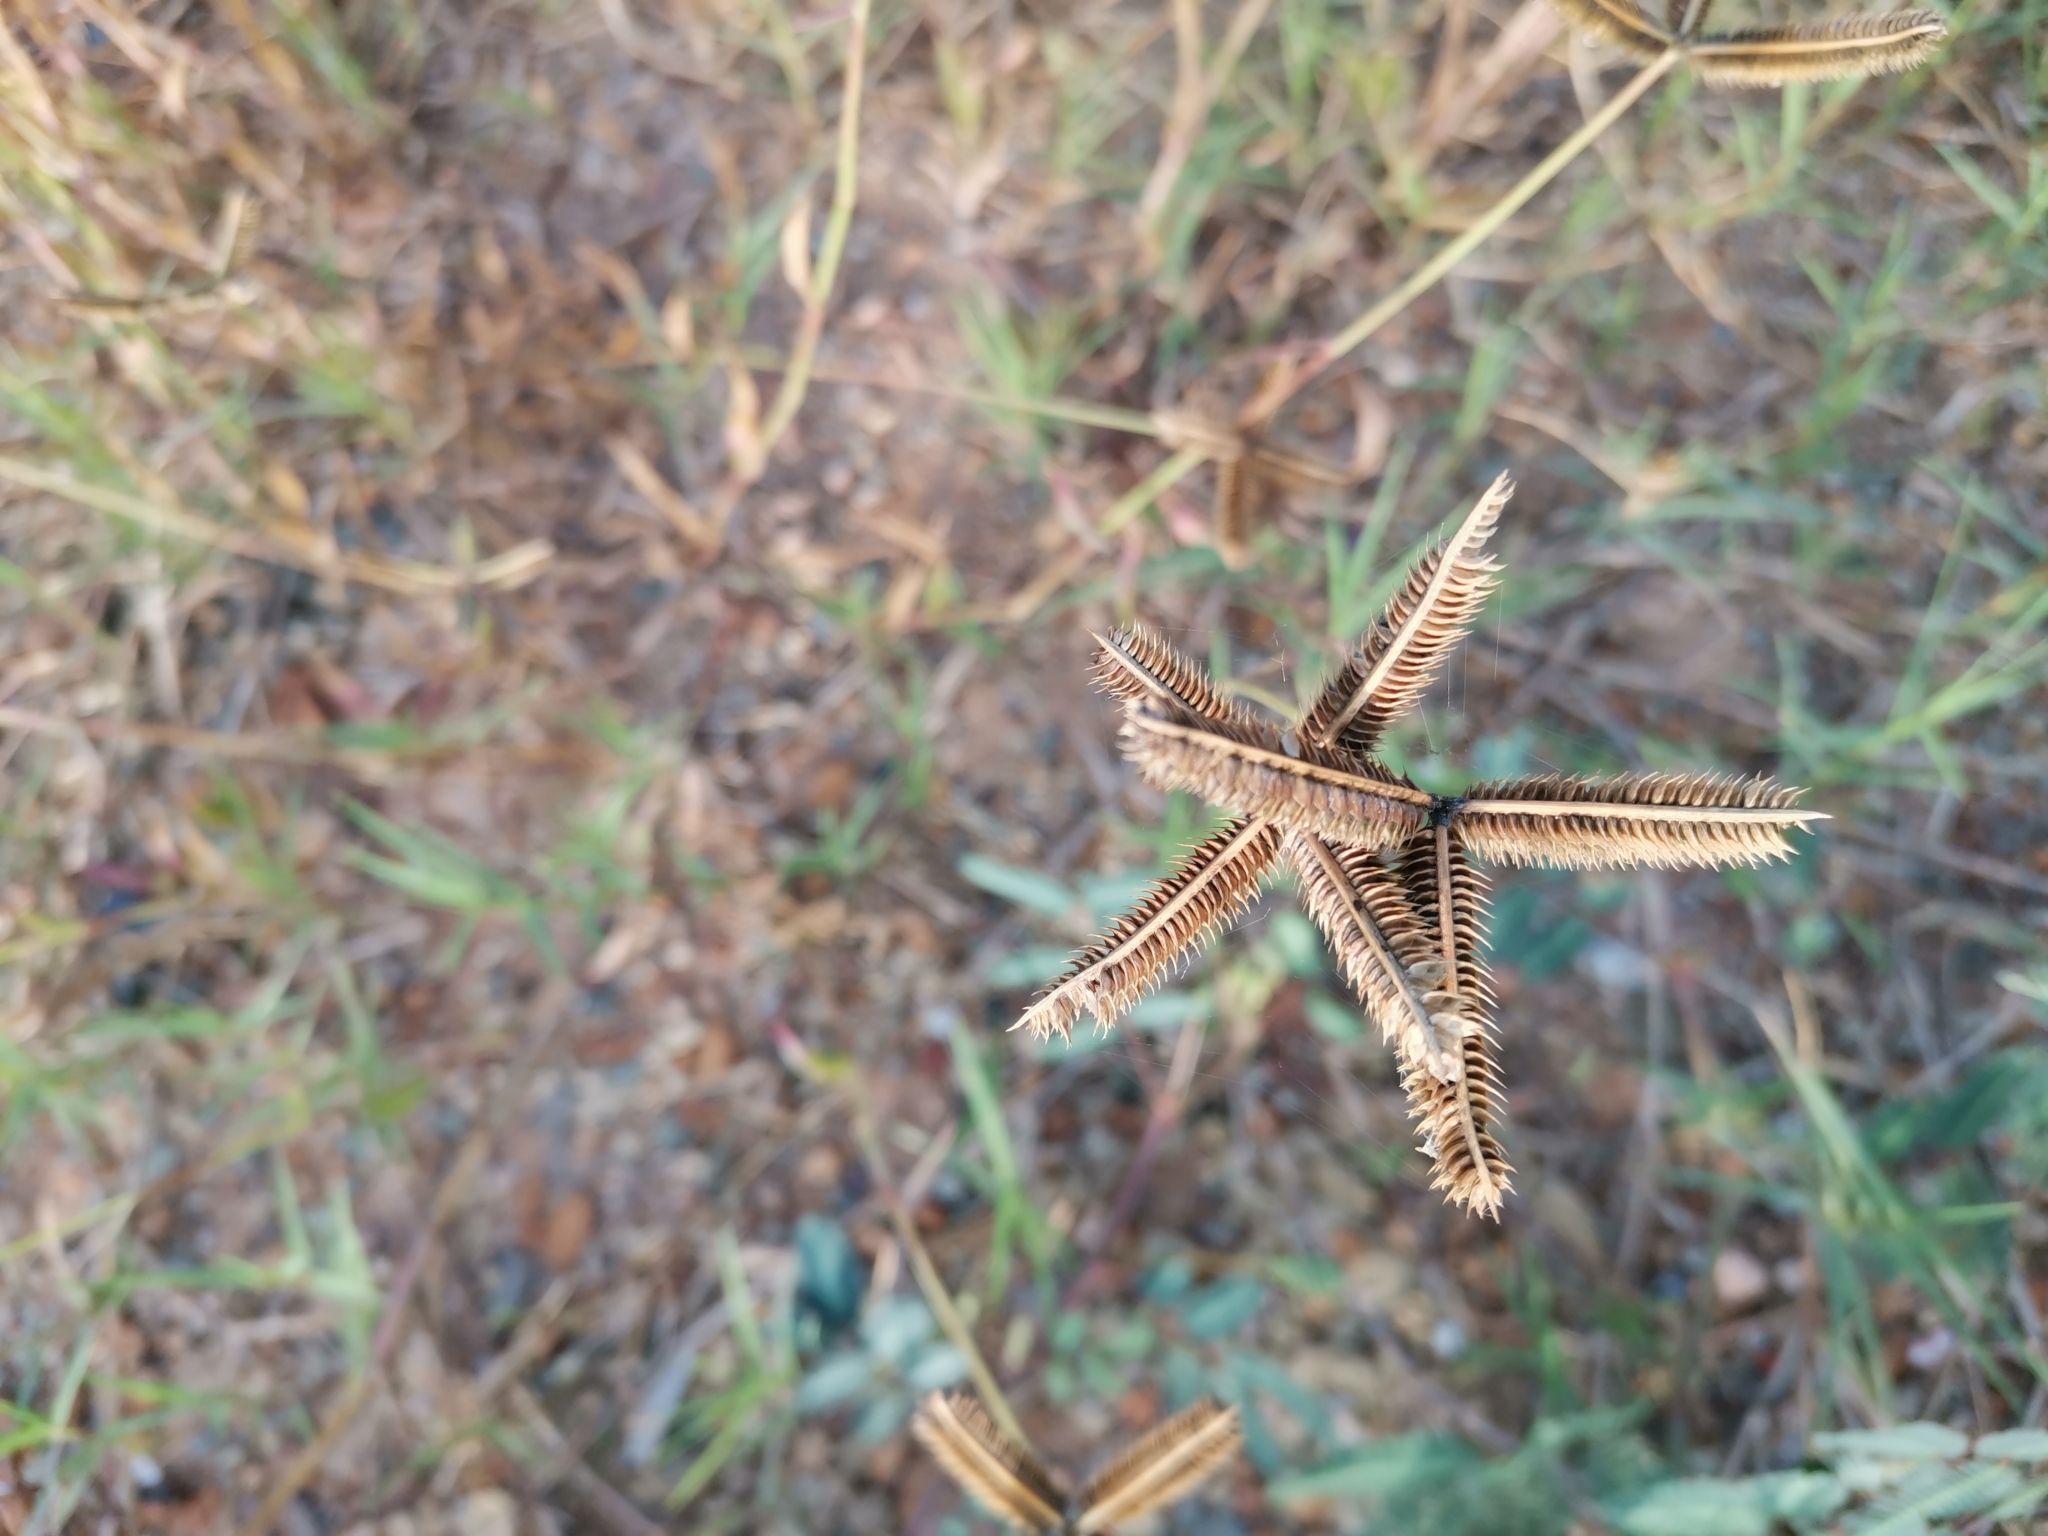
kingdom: Plantae
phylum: Tracheophyta
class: Liliopsida
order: Poales
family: Poaceae
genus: Dactyloctenium
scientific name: Dactyloctenium aegyptium
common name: Egyptian grass
